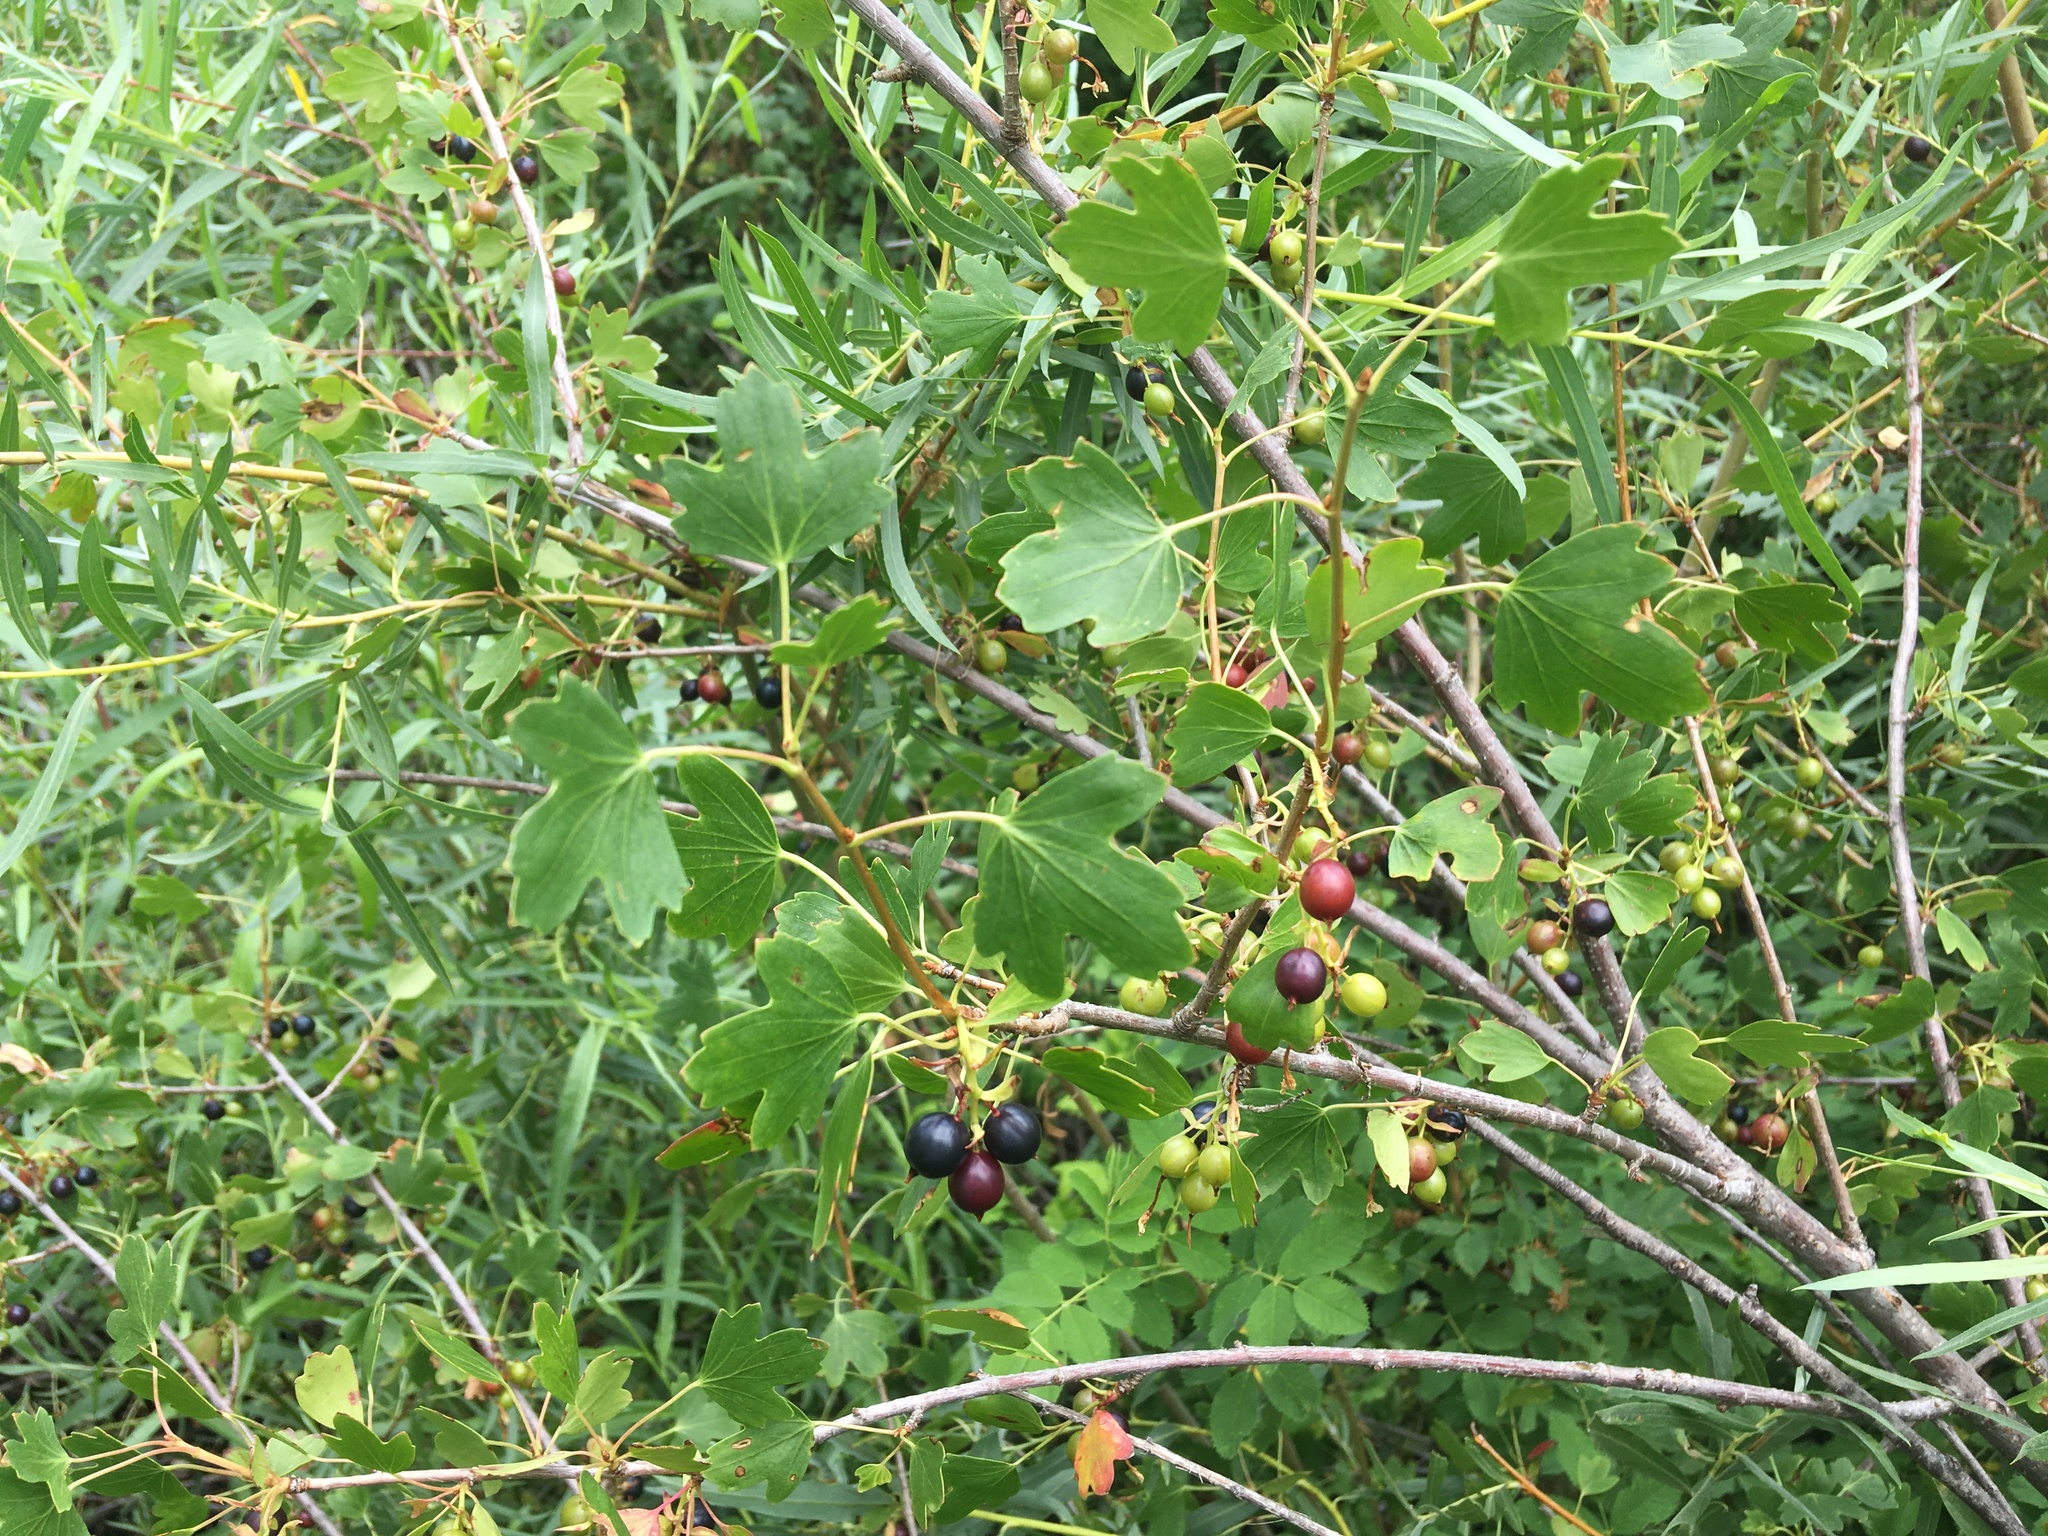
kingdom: Plantae
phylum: Tracheophyta
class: Magnoliopsida
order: Saxifragales
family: Grossulariaceae
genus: Ribes
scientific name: Ribes aureum
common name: Golden currant
